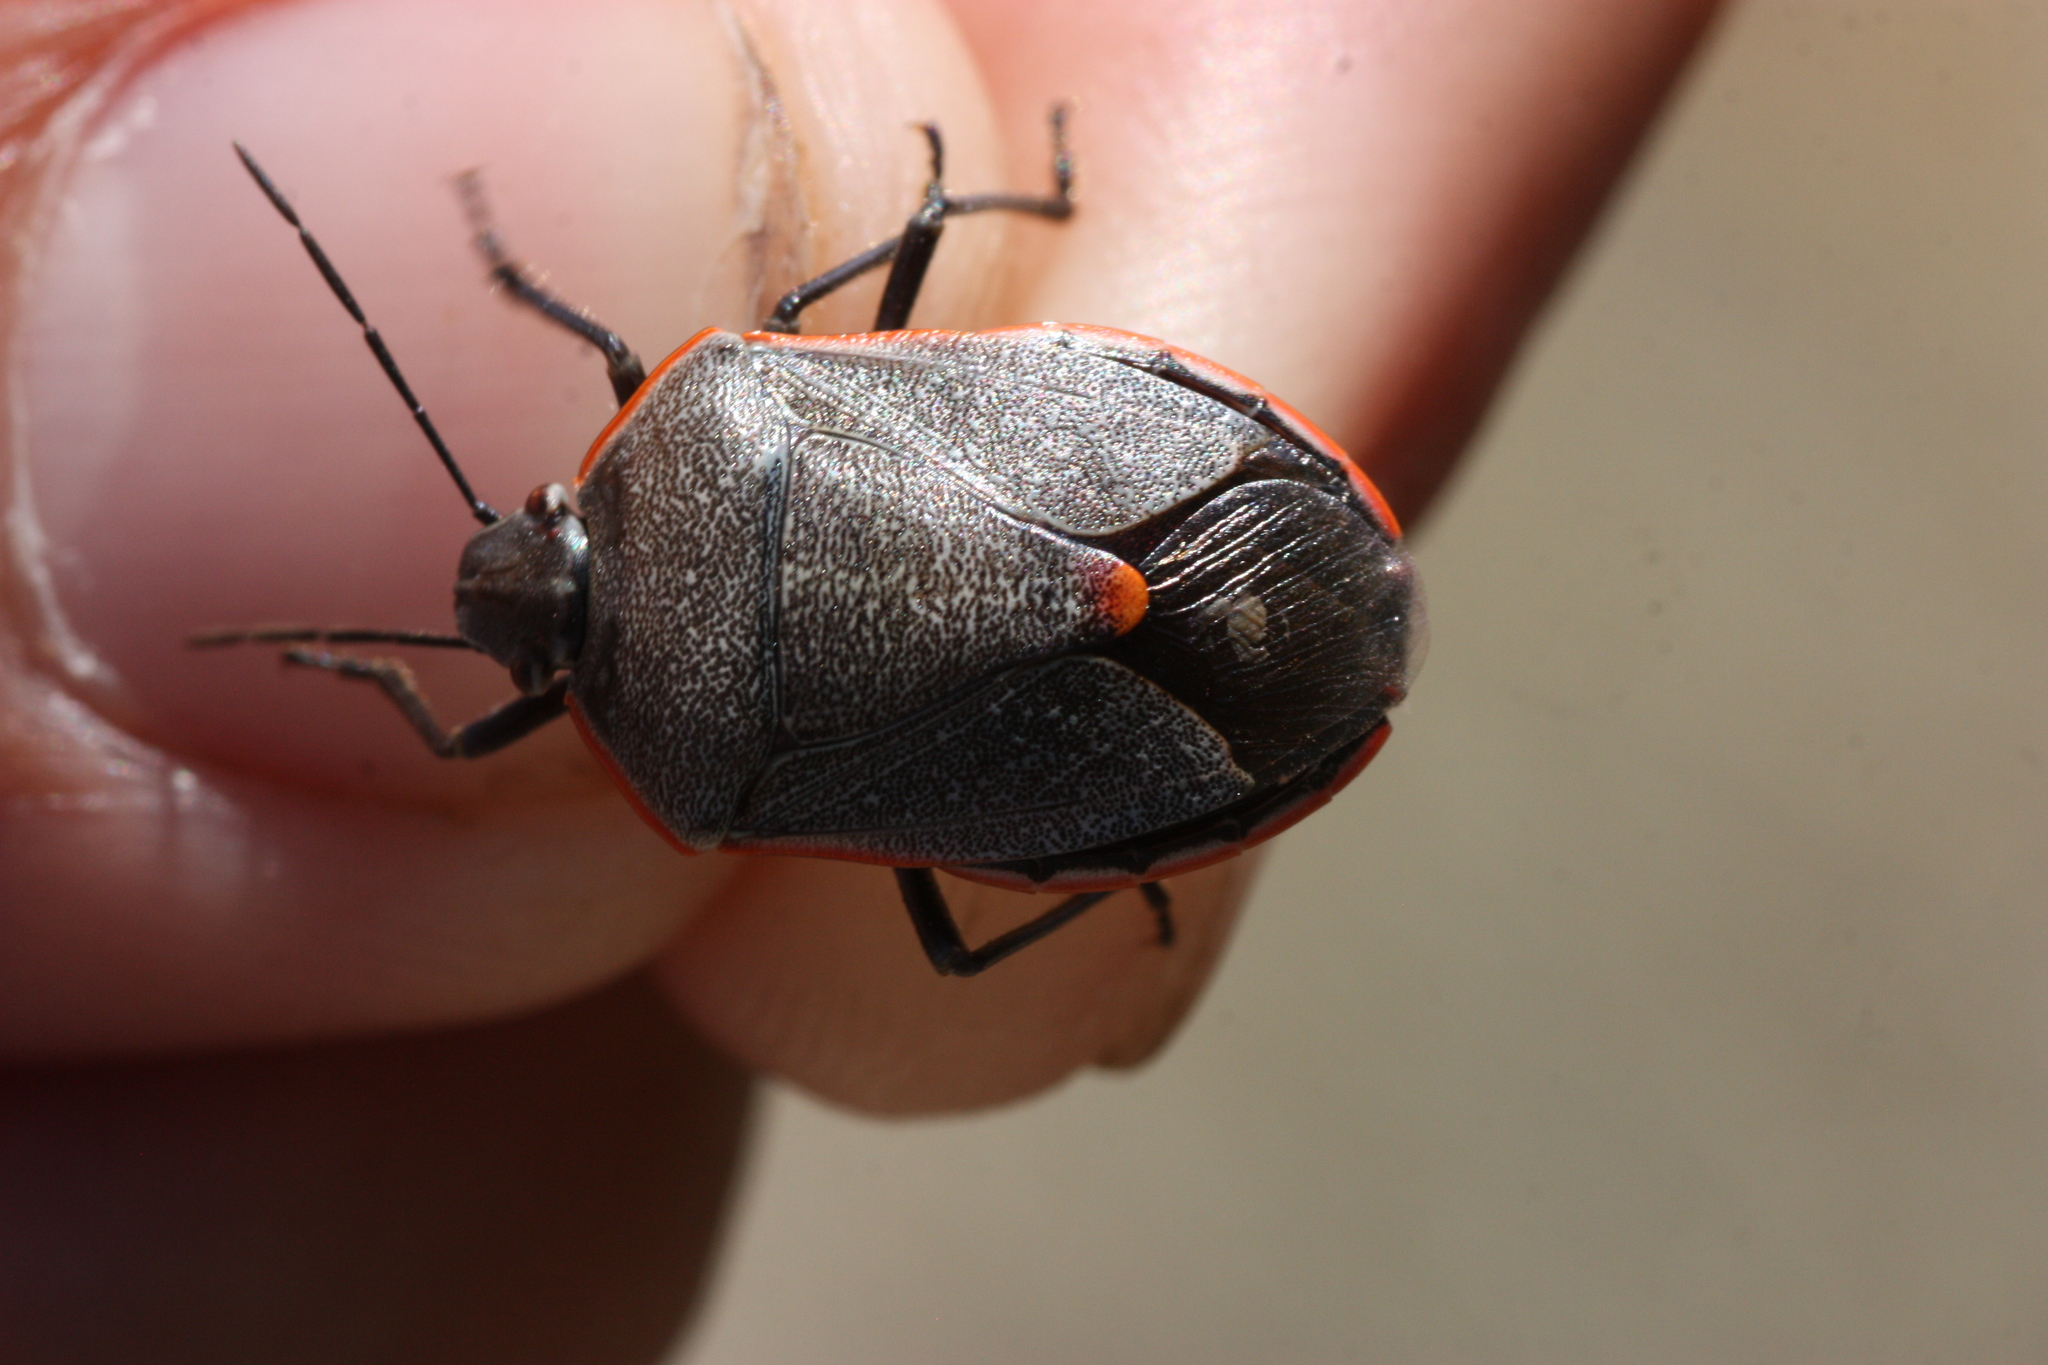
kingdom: Animalia
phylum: Arthropoda
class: Insecta
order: Hemiptera
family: Pentatomidae
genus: Chlorochroa
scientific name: Chlorochroa ligata
